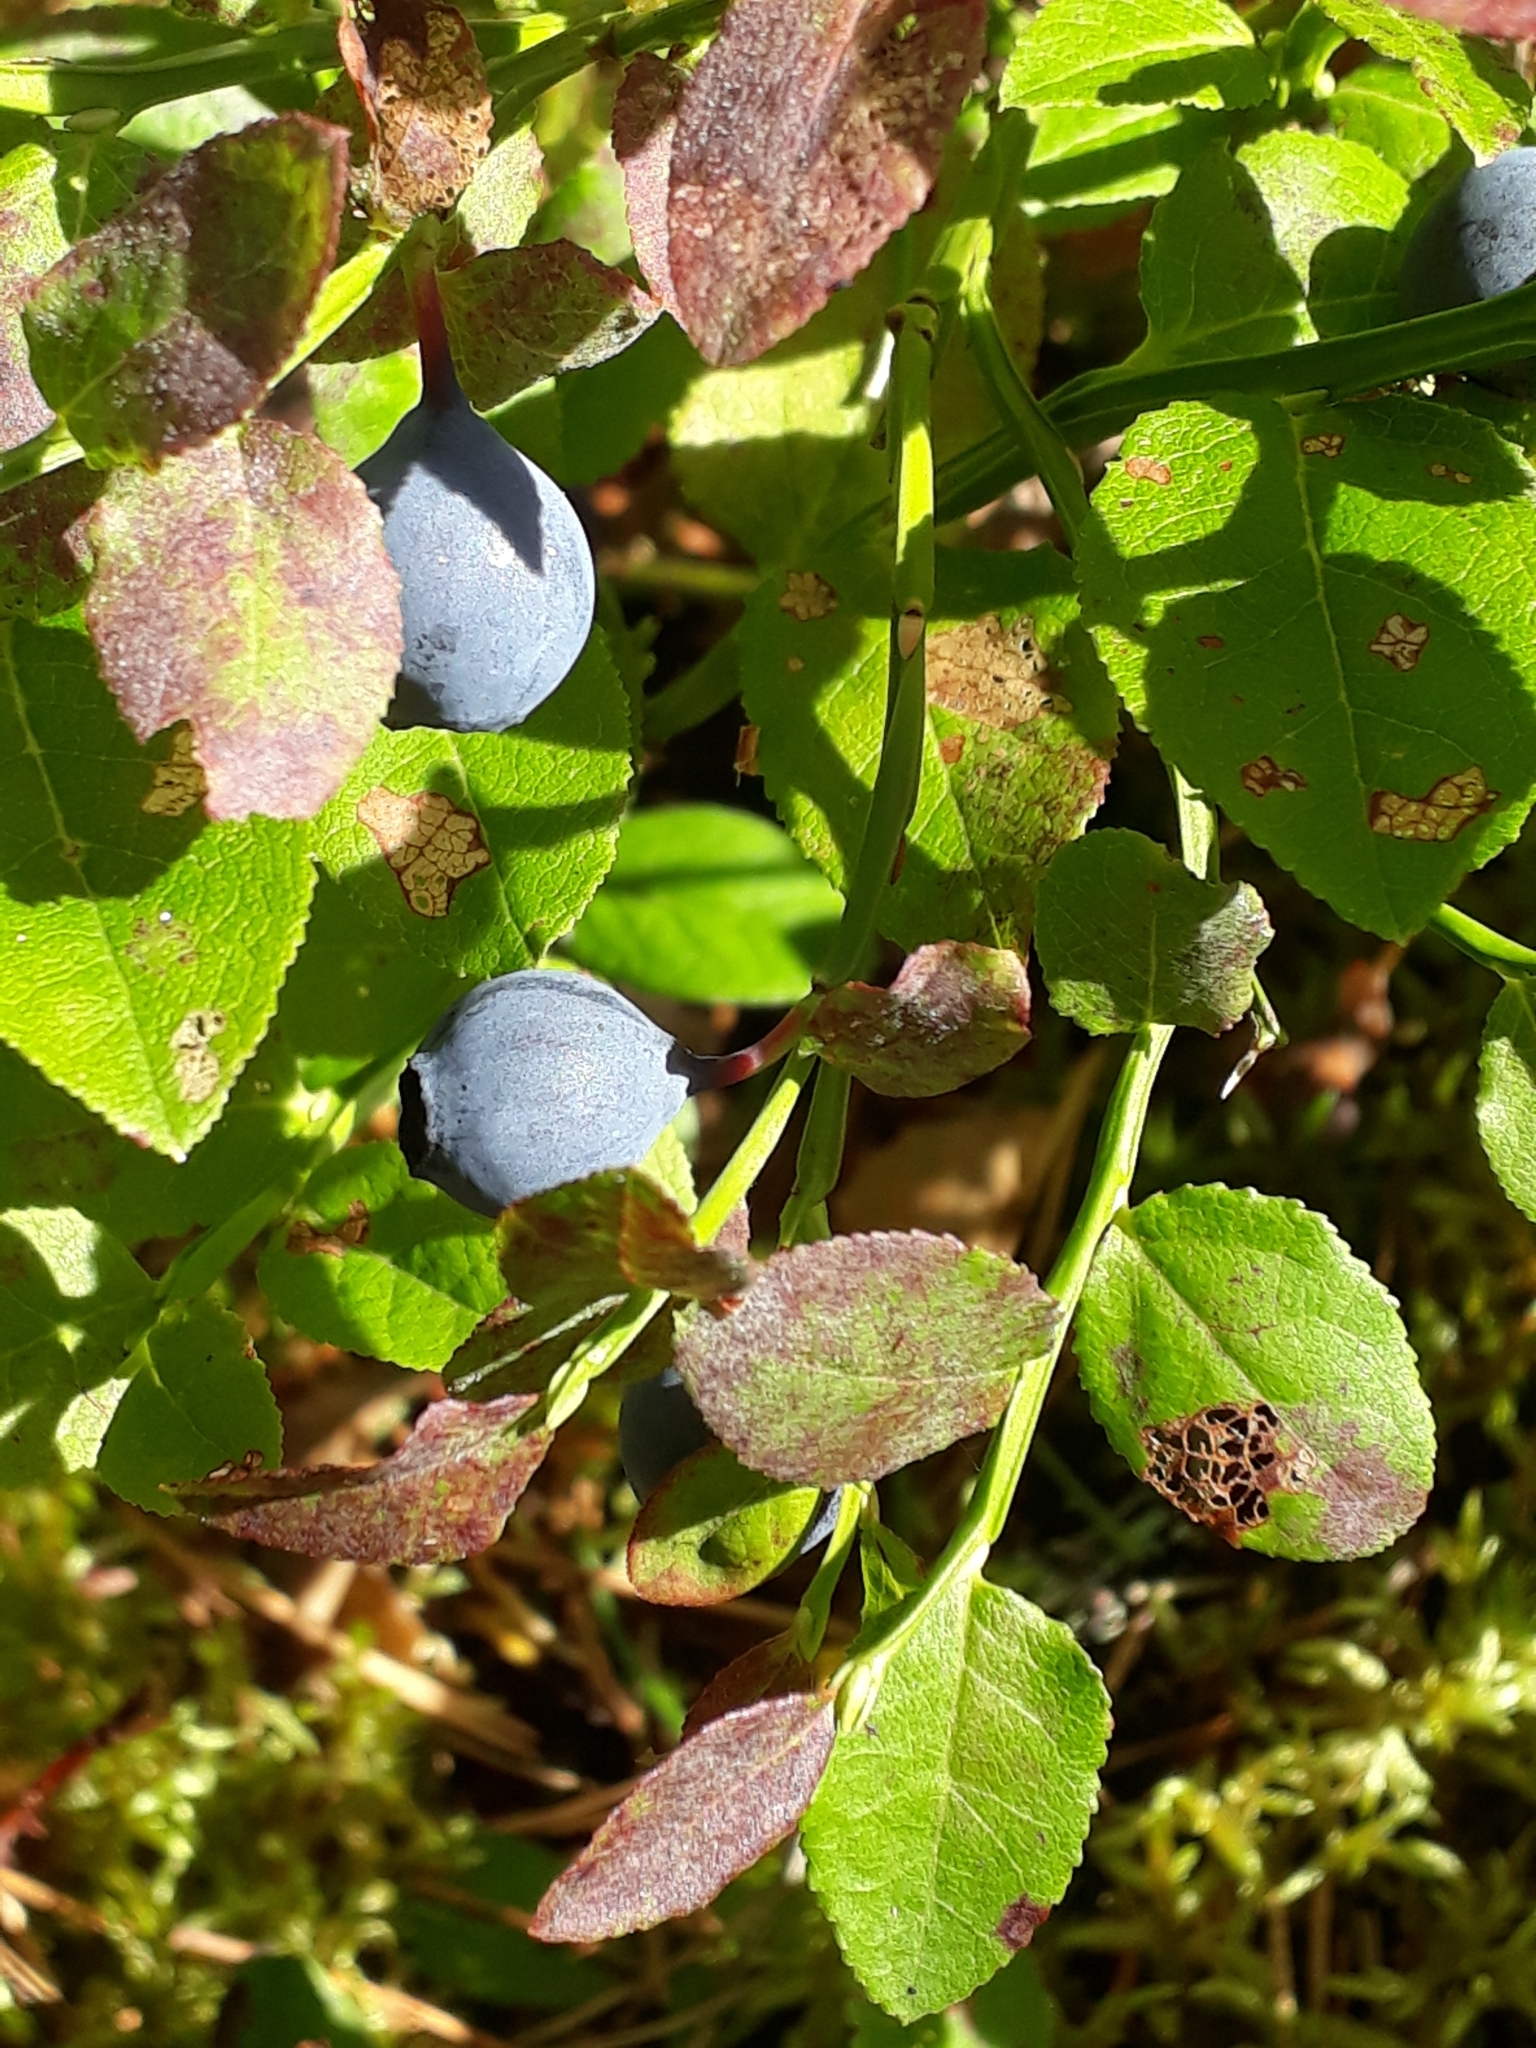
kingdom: Plantae
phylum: Tracheophyta
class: Magnoliopsida
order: Ericales
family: Ericaceae
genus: Vaccinium
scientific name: Vaccinium myrtillus
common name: Bilberry
